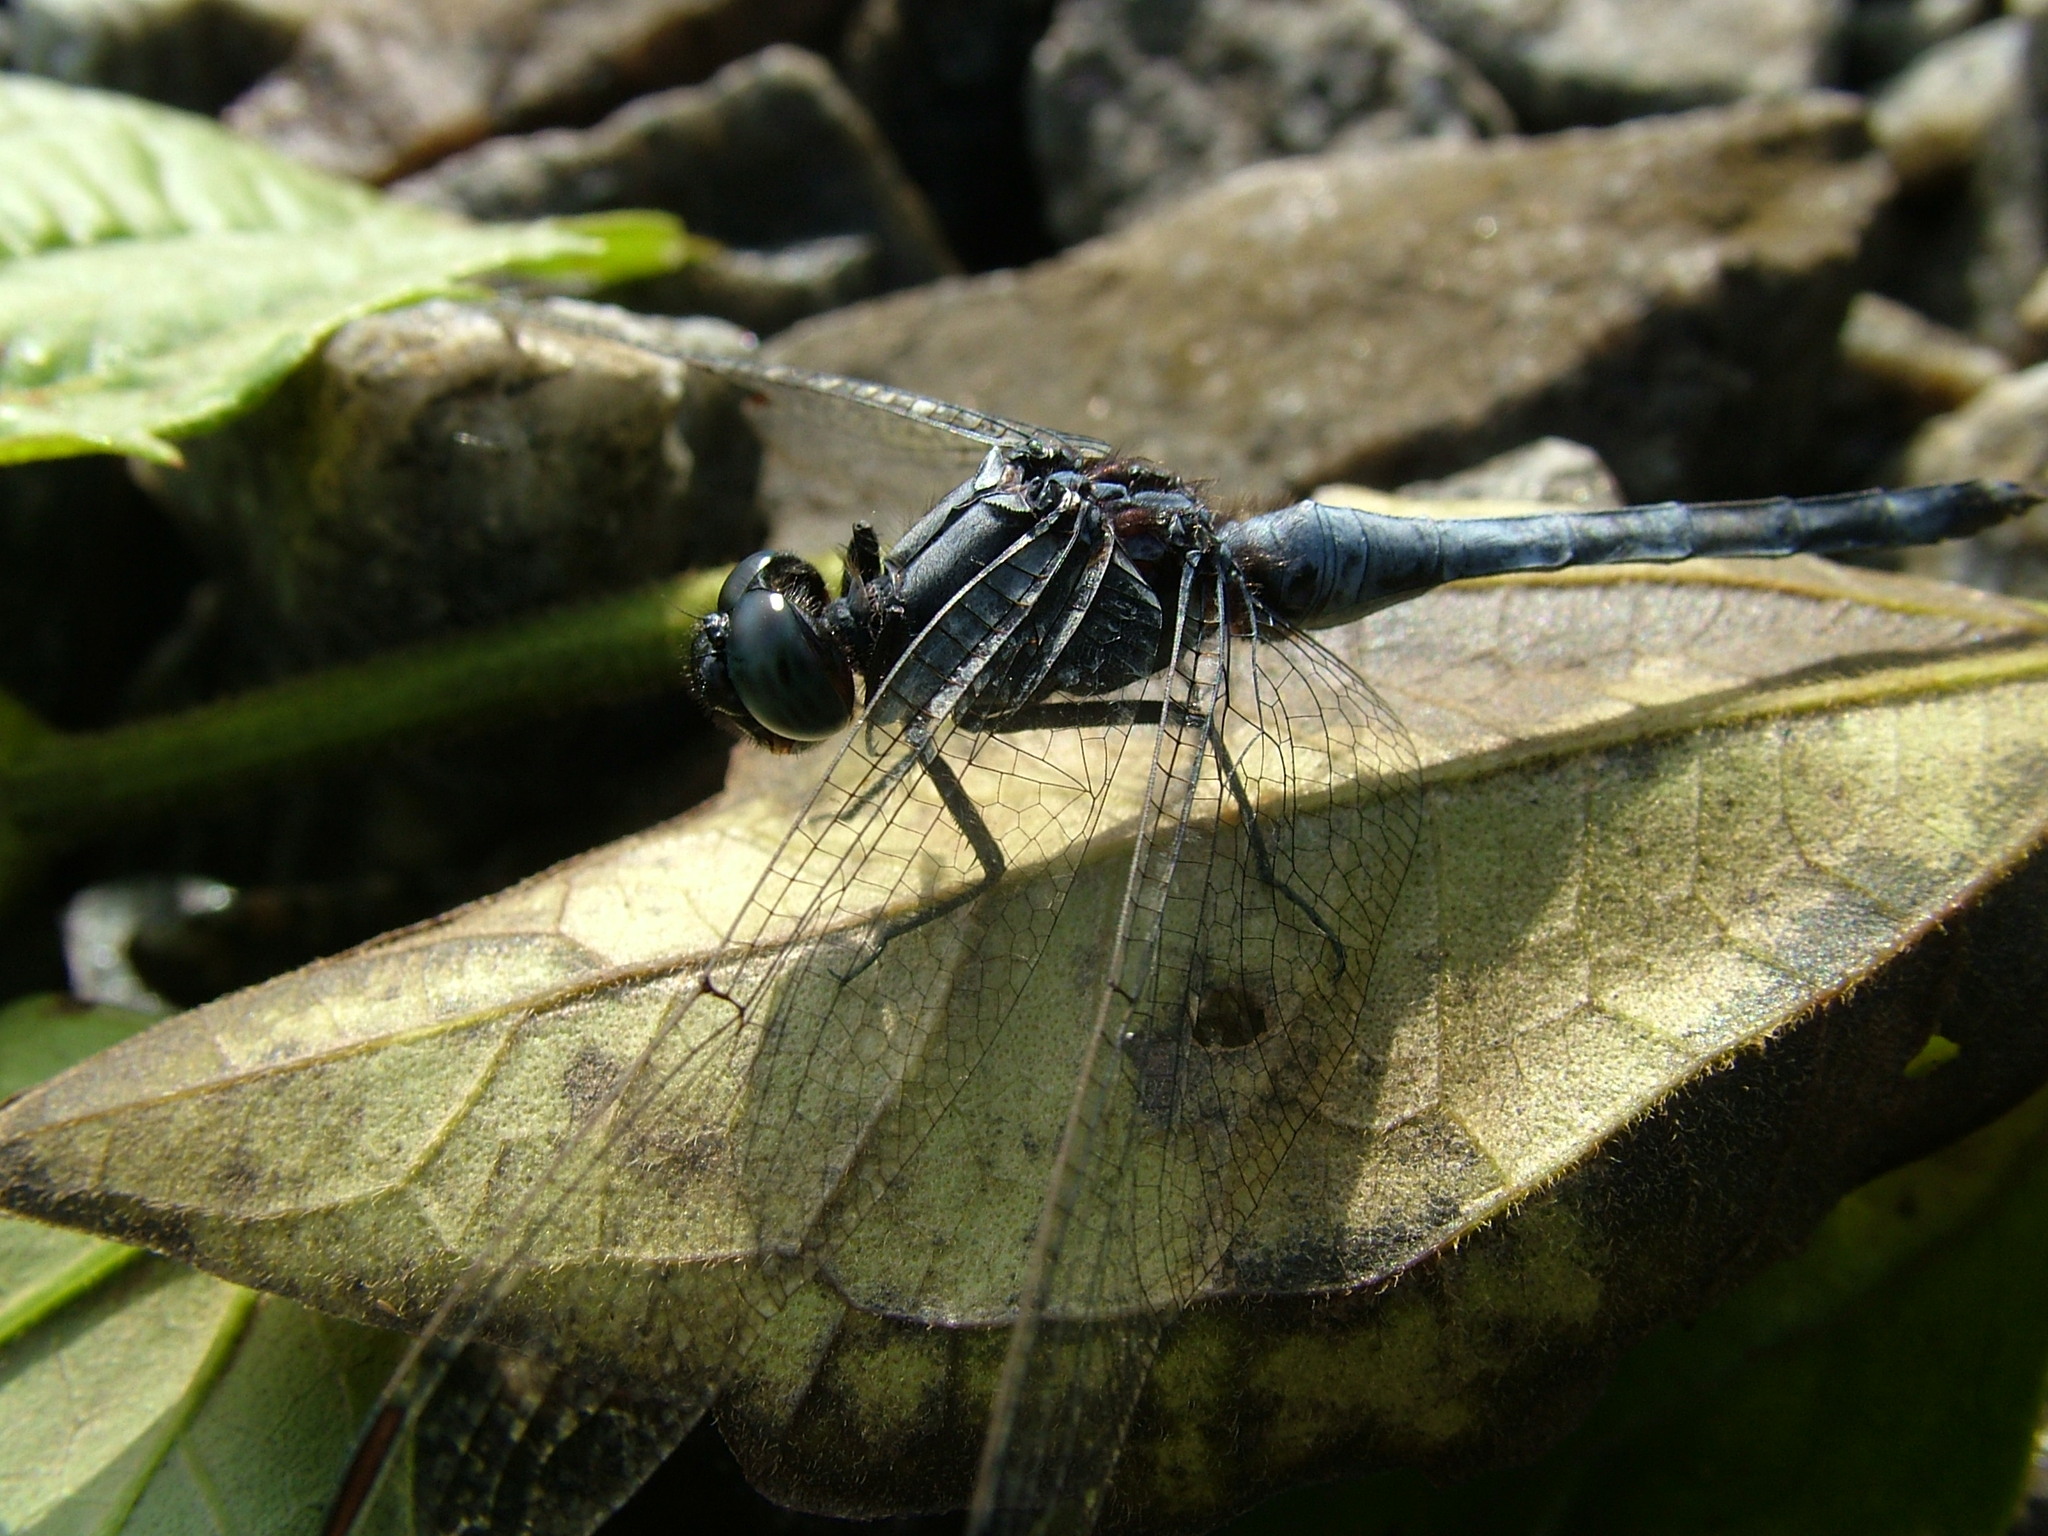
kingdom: Animalia
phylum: Arthropoda
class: Insecta
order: Odonata
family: Libellulidae
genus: Orthetrum
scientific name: Orthetrum glaucum
